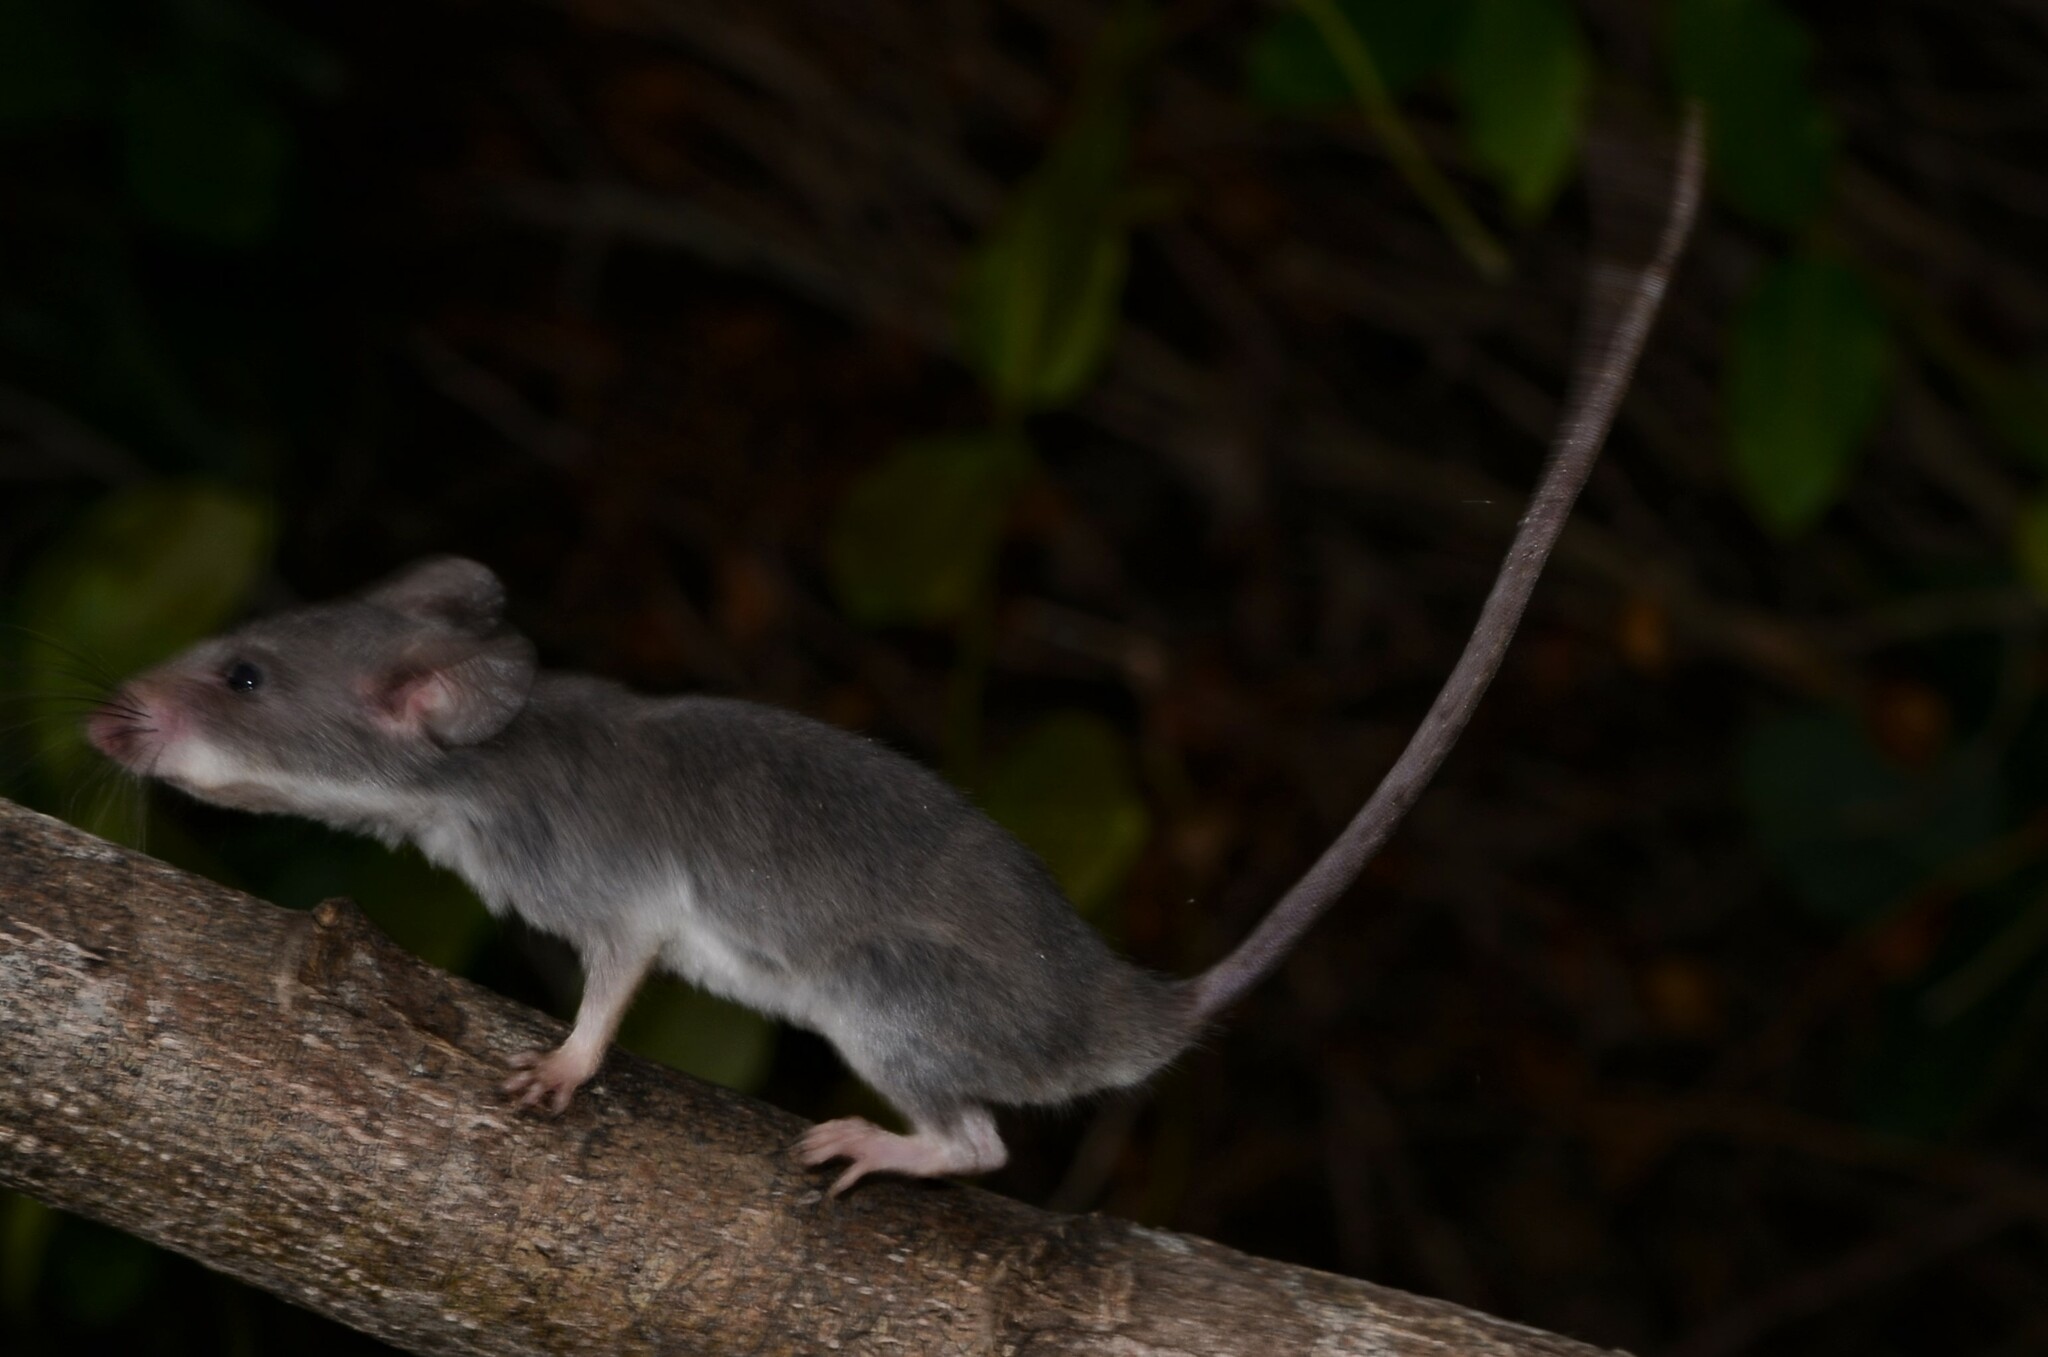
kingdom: Animalia
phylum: Chordata
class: Mammalia
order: Rodentia
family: Nesomyidae
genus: Beamys
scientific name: Beamys hindei
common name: Lesser hamster-rat, long-tailed pouched rat
